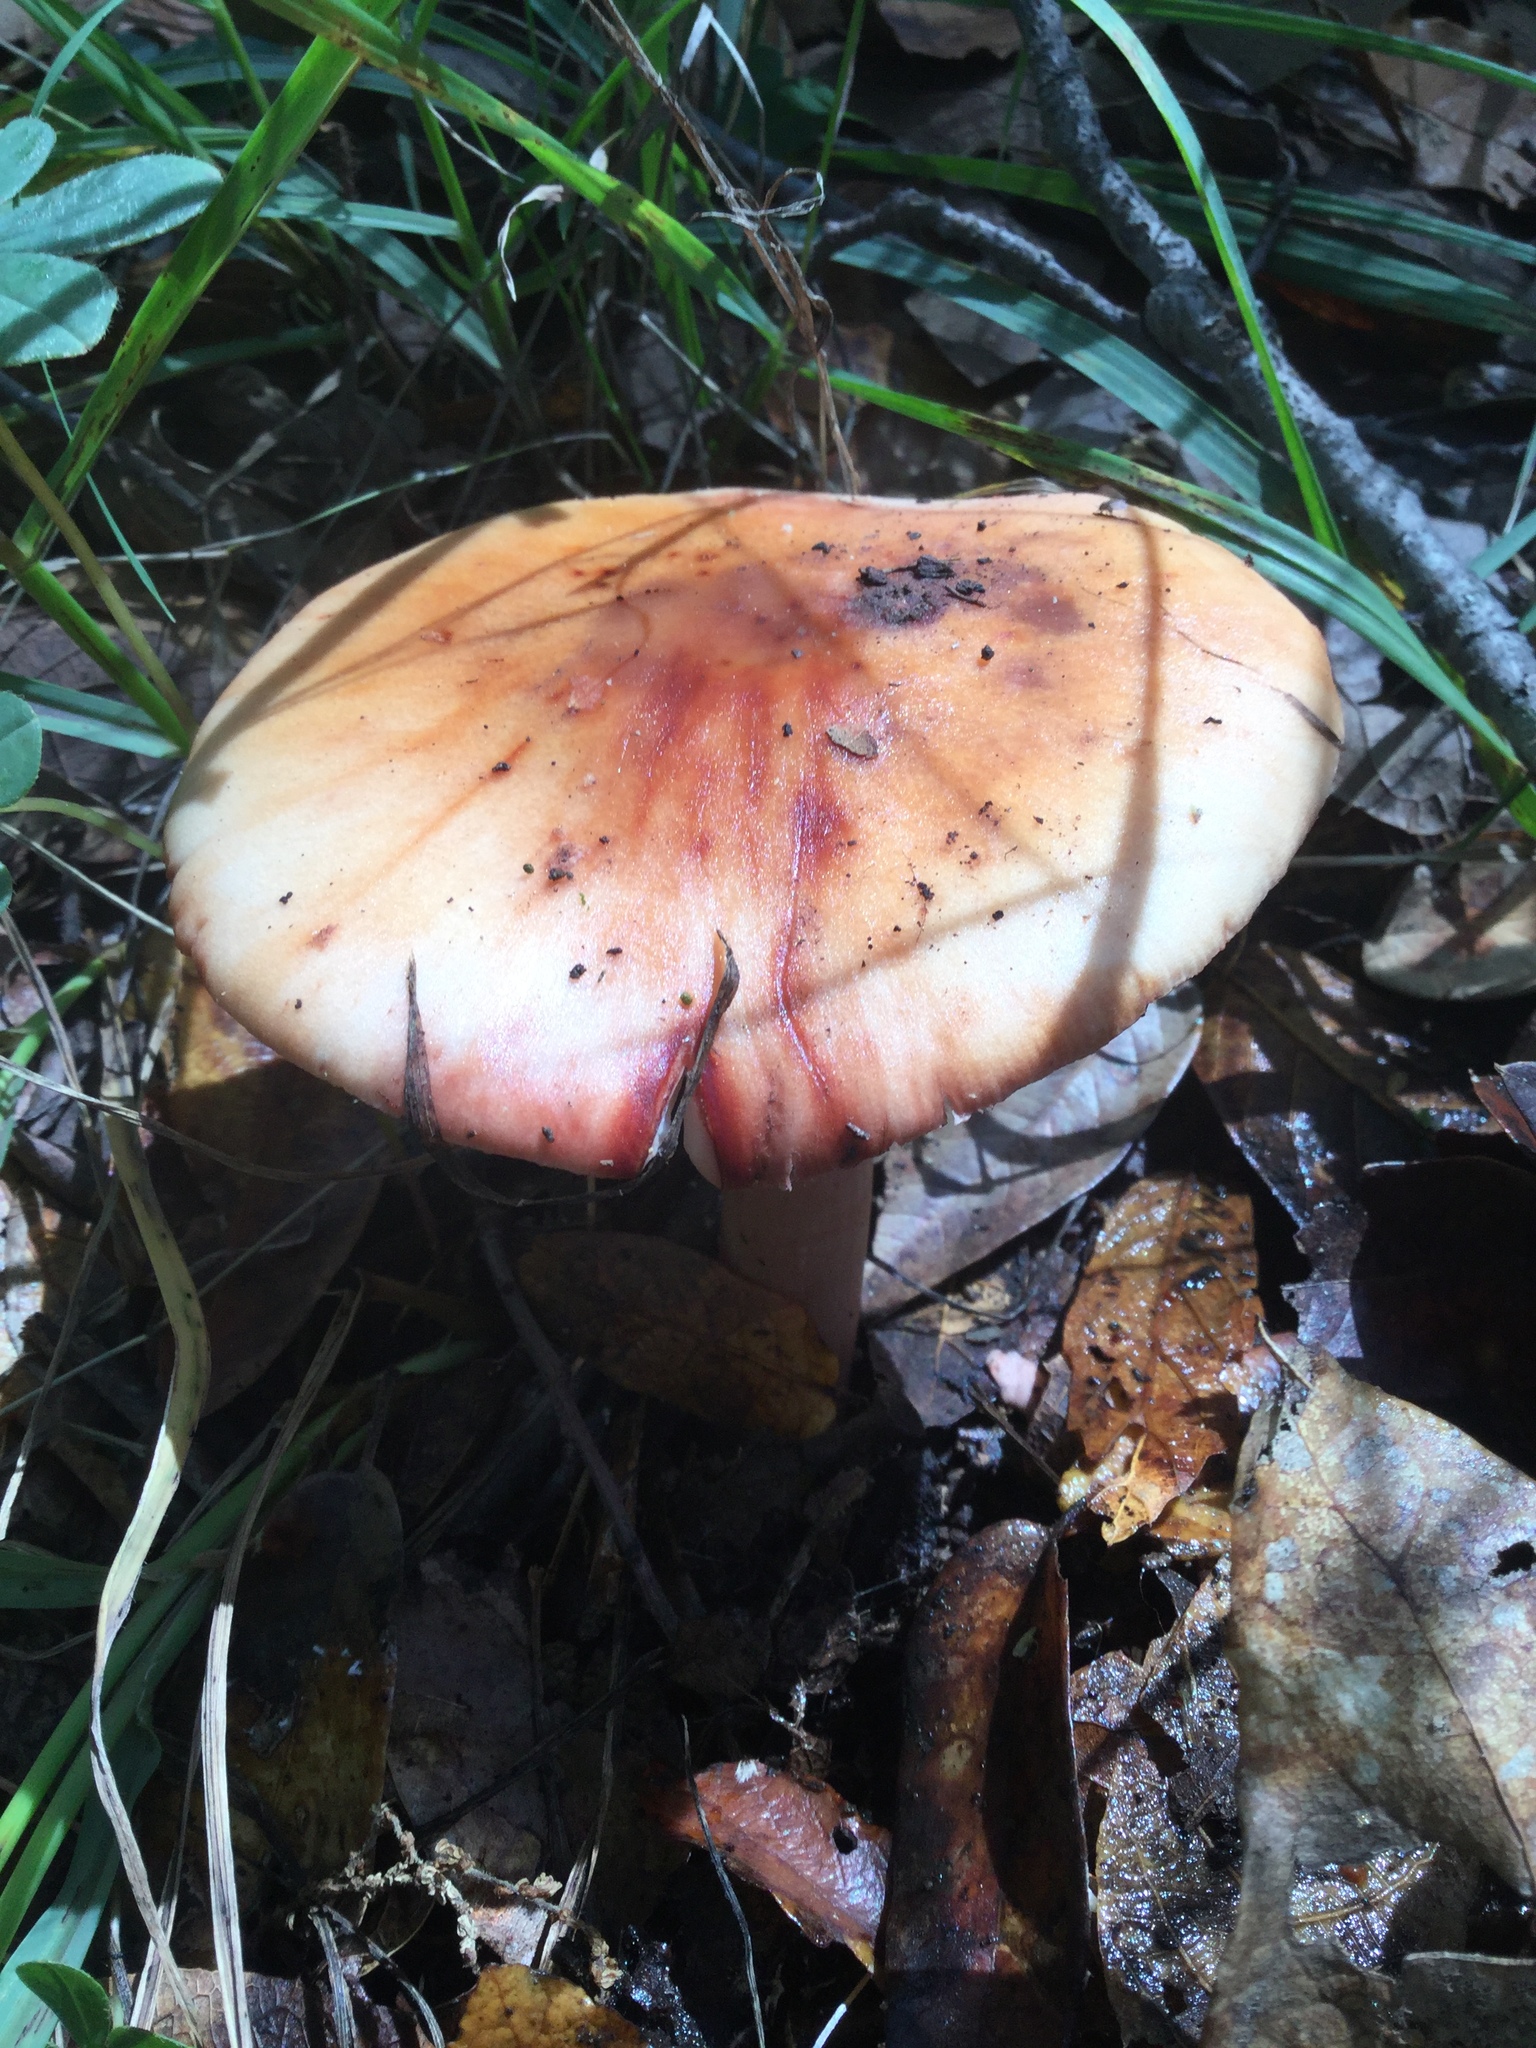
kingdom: Fungi
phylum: Basidiomycota
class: Agaricomycetes
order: Agaricales
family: Amanitaceae
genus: Amanita
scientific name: Amanita brunneolocularis
